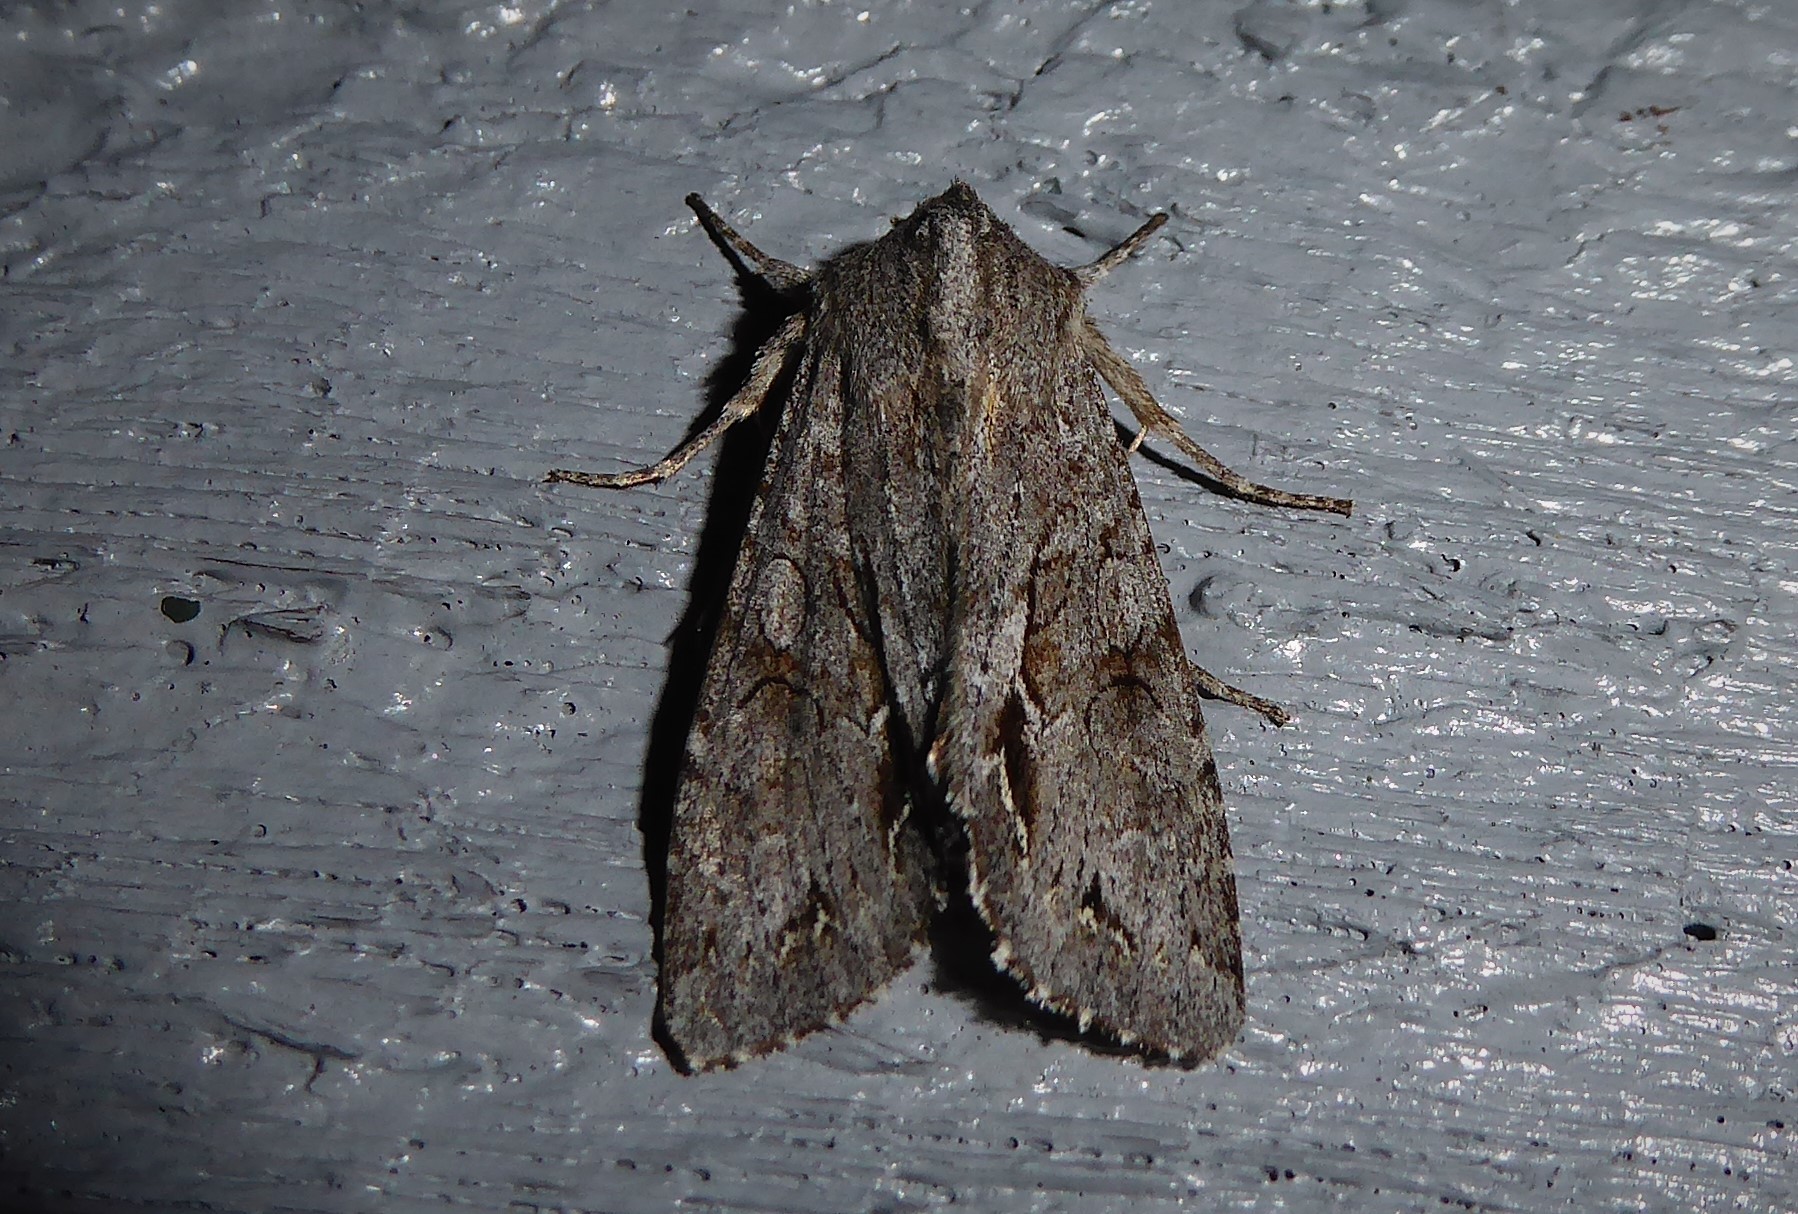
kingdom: Animalia
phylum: Arthropoda
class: Insecta
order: Lepidoptera
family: Noctuidae
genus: Ichneutica
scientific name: Ichneutica
